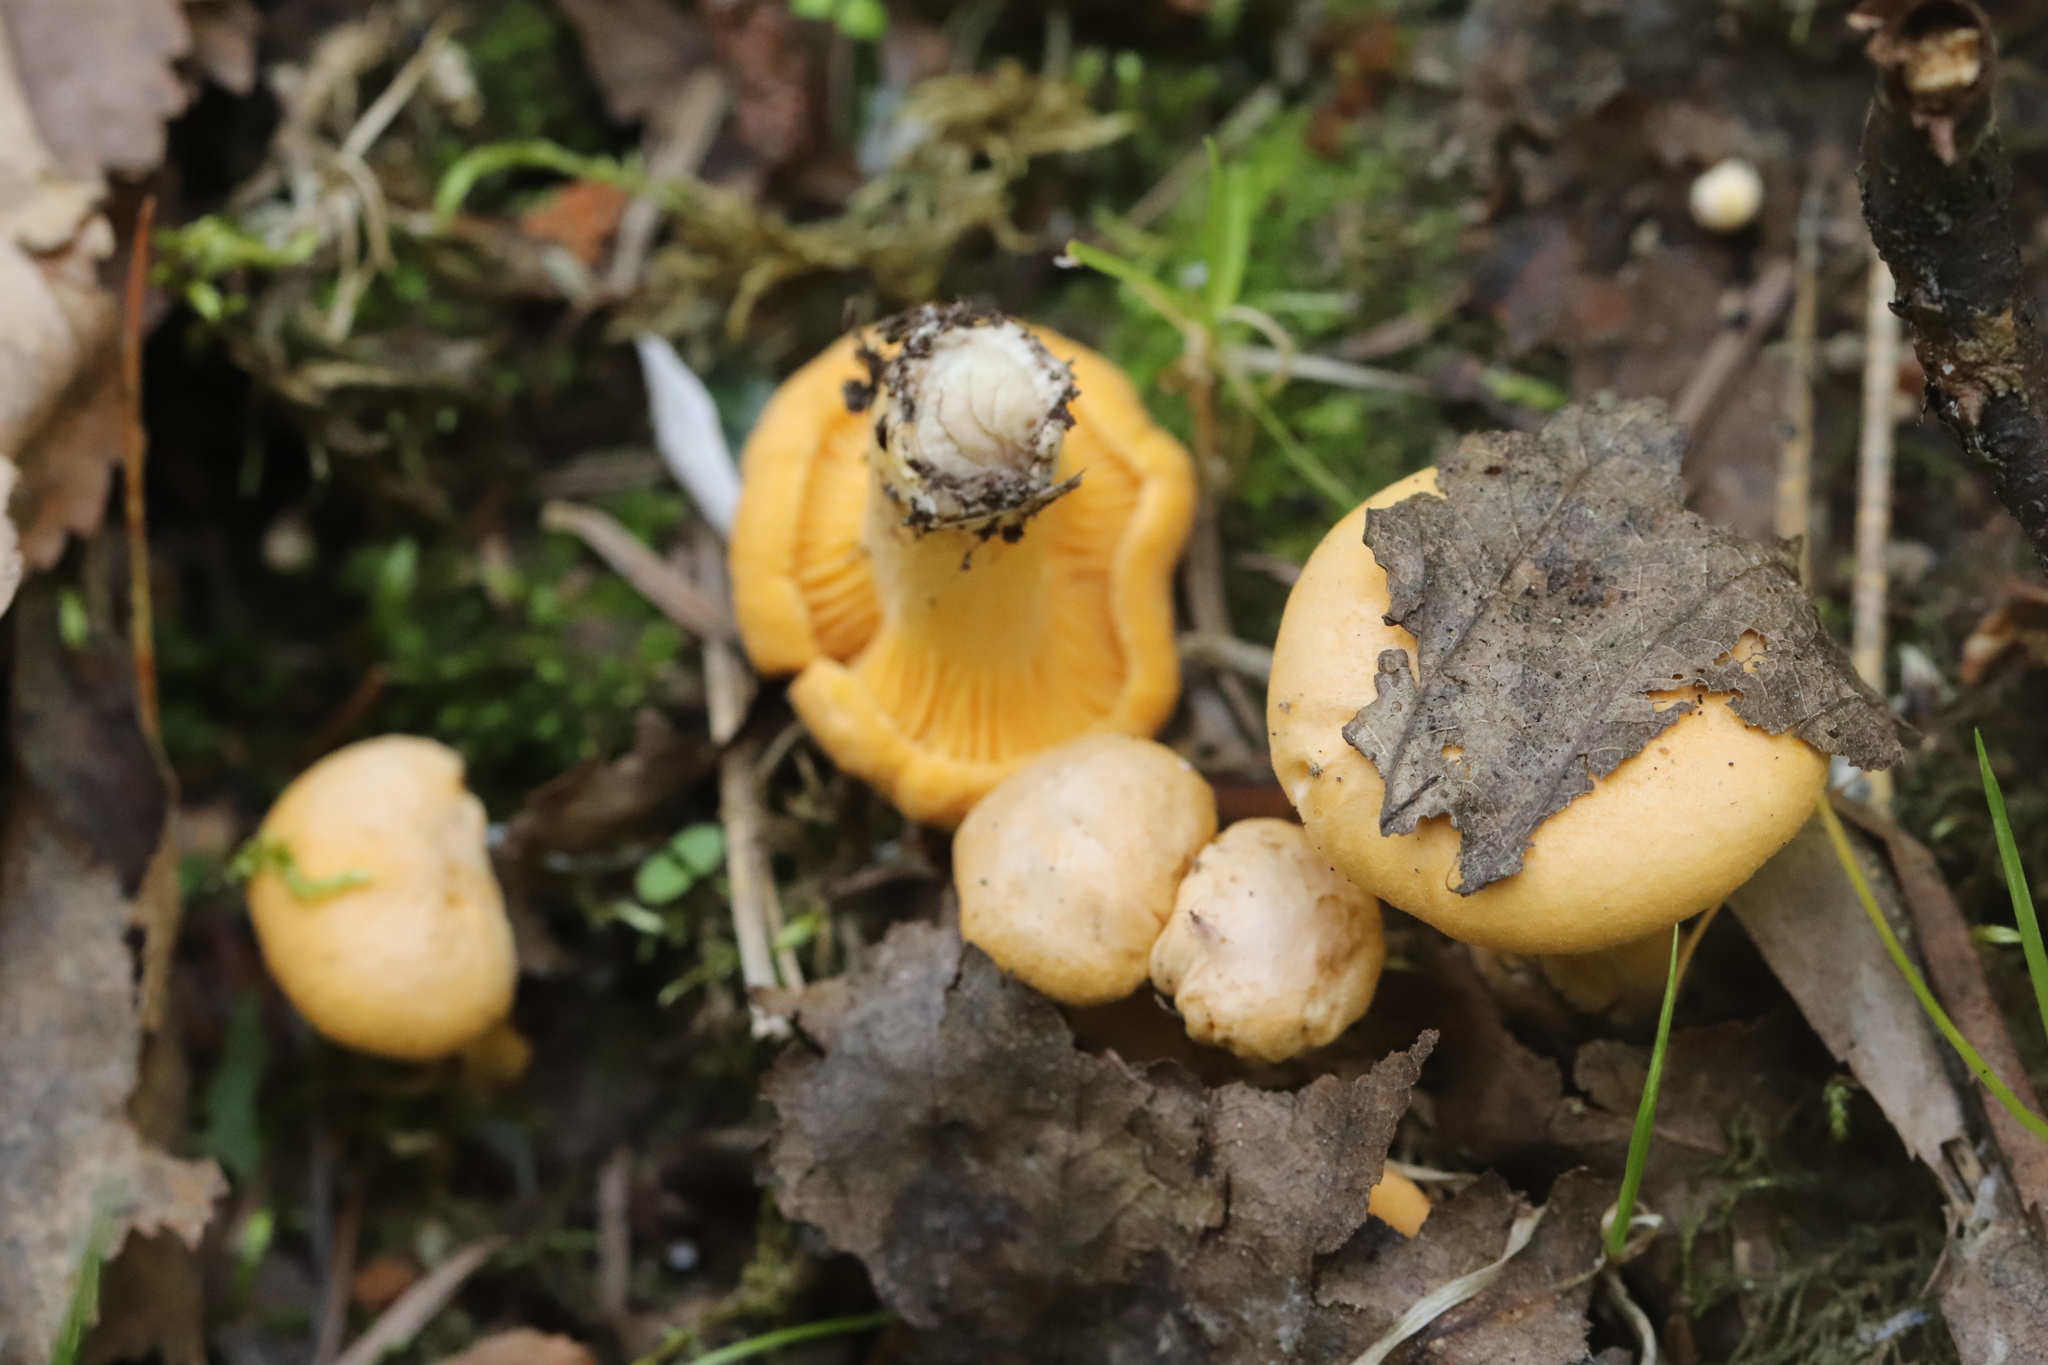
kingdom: Fungi
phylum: Basidiomycota
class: Agaricomycetes
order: Cantharellales
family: Hydnaceae
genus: Cantharellus
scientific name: Cantharellus cibarius
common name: Chanterelle
